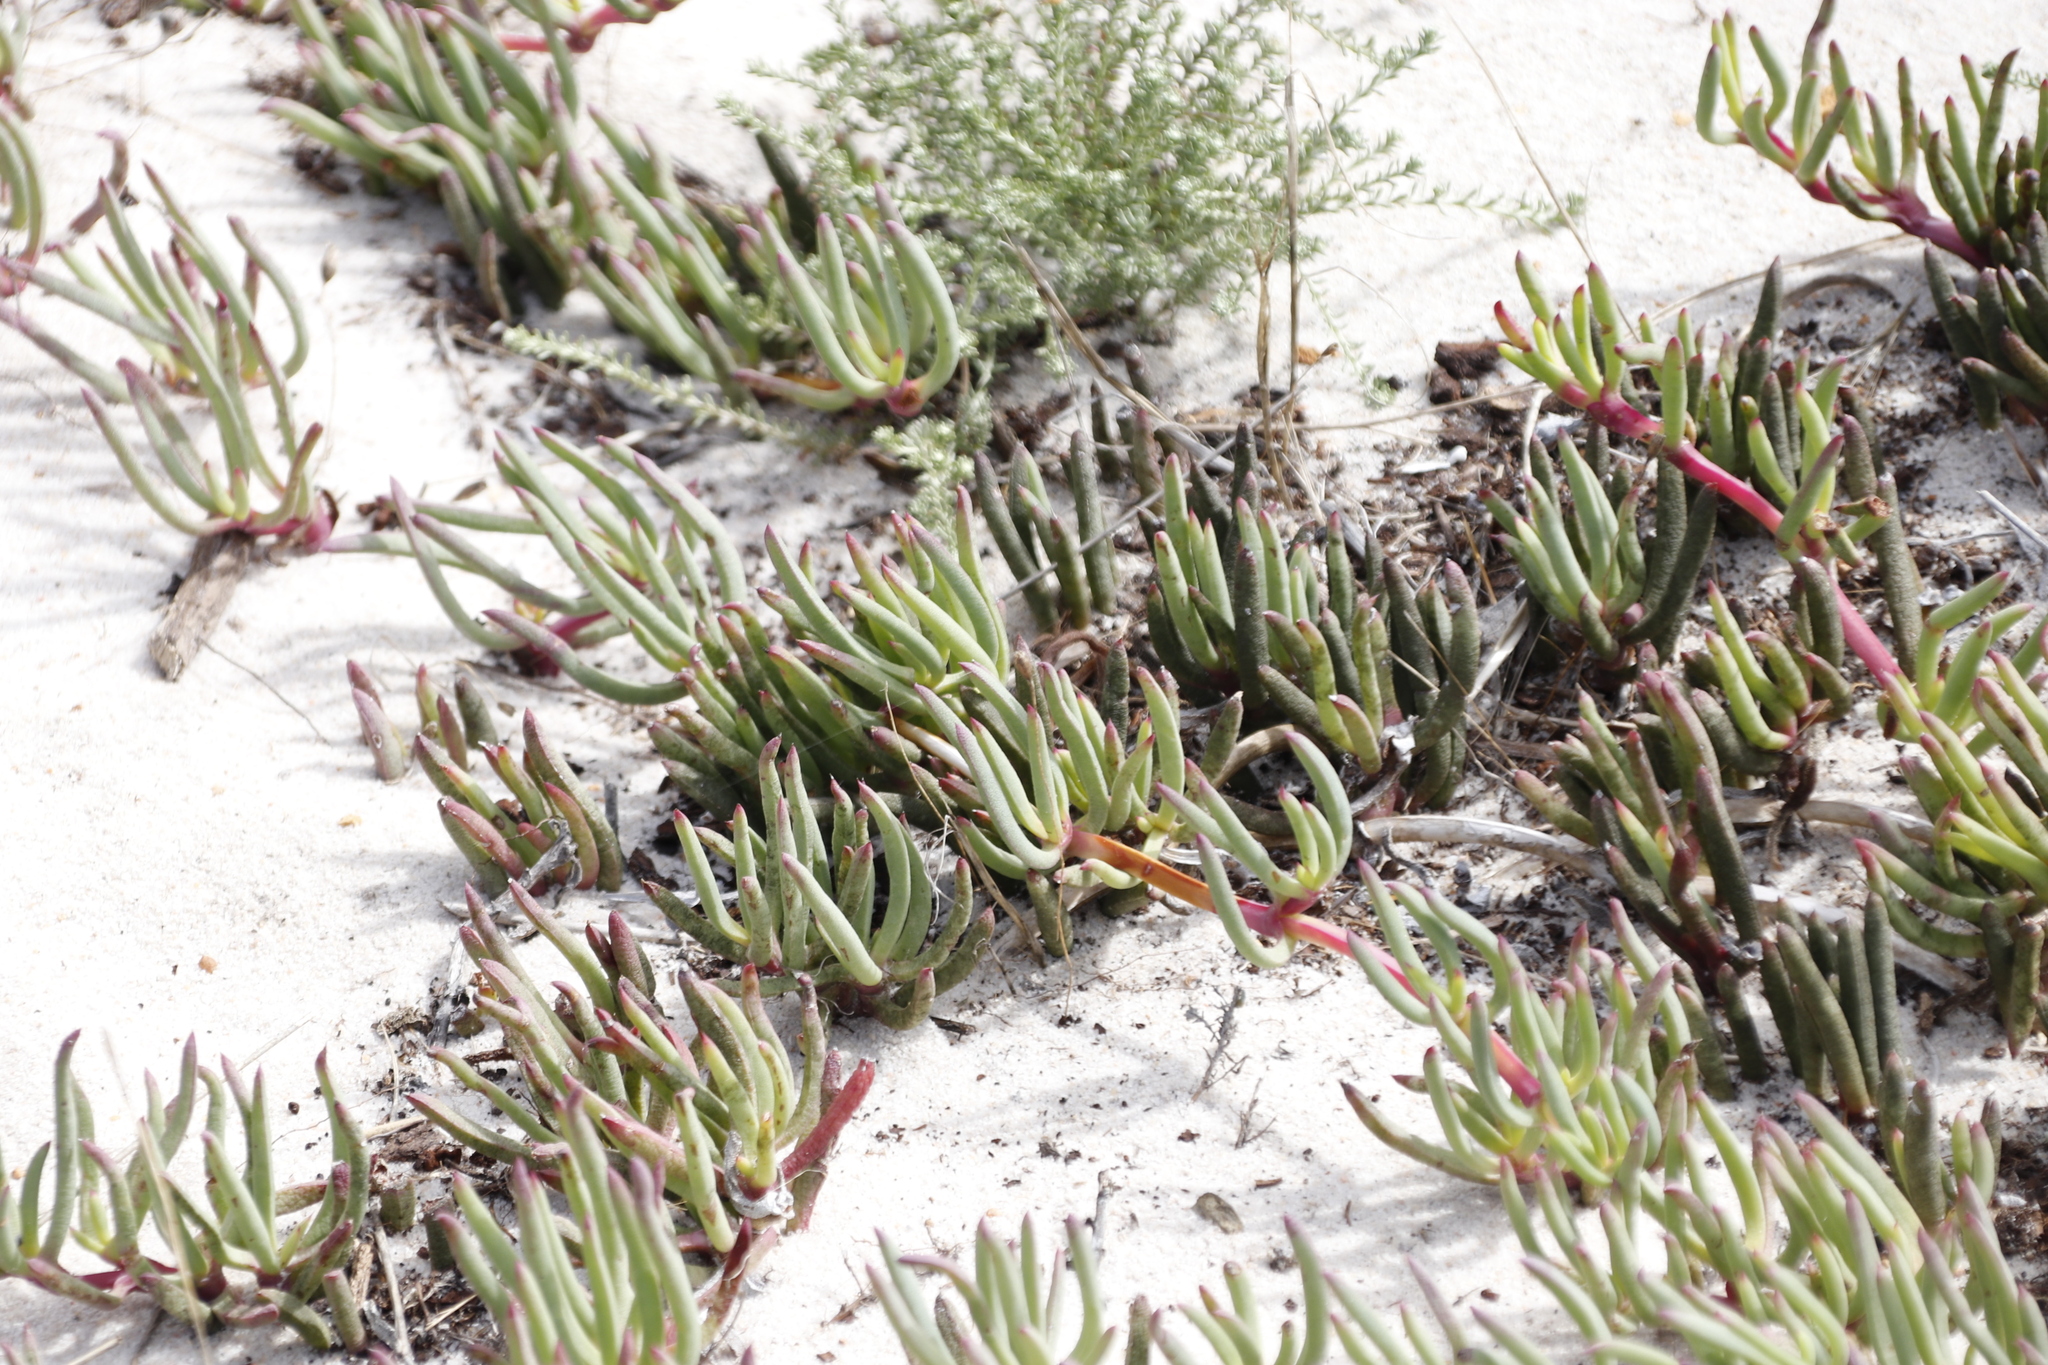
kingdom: Plantae
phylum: Tracheophyta
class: Magnoliopsida
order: Caryophyllales
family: Aizoaceae
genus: Jordaaniella
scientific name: Jordaaniella dubia
